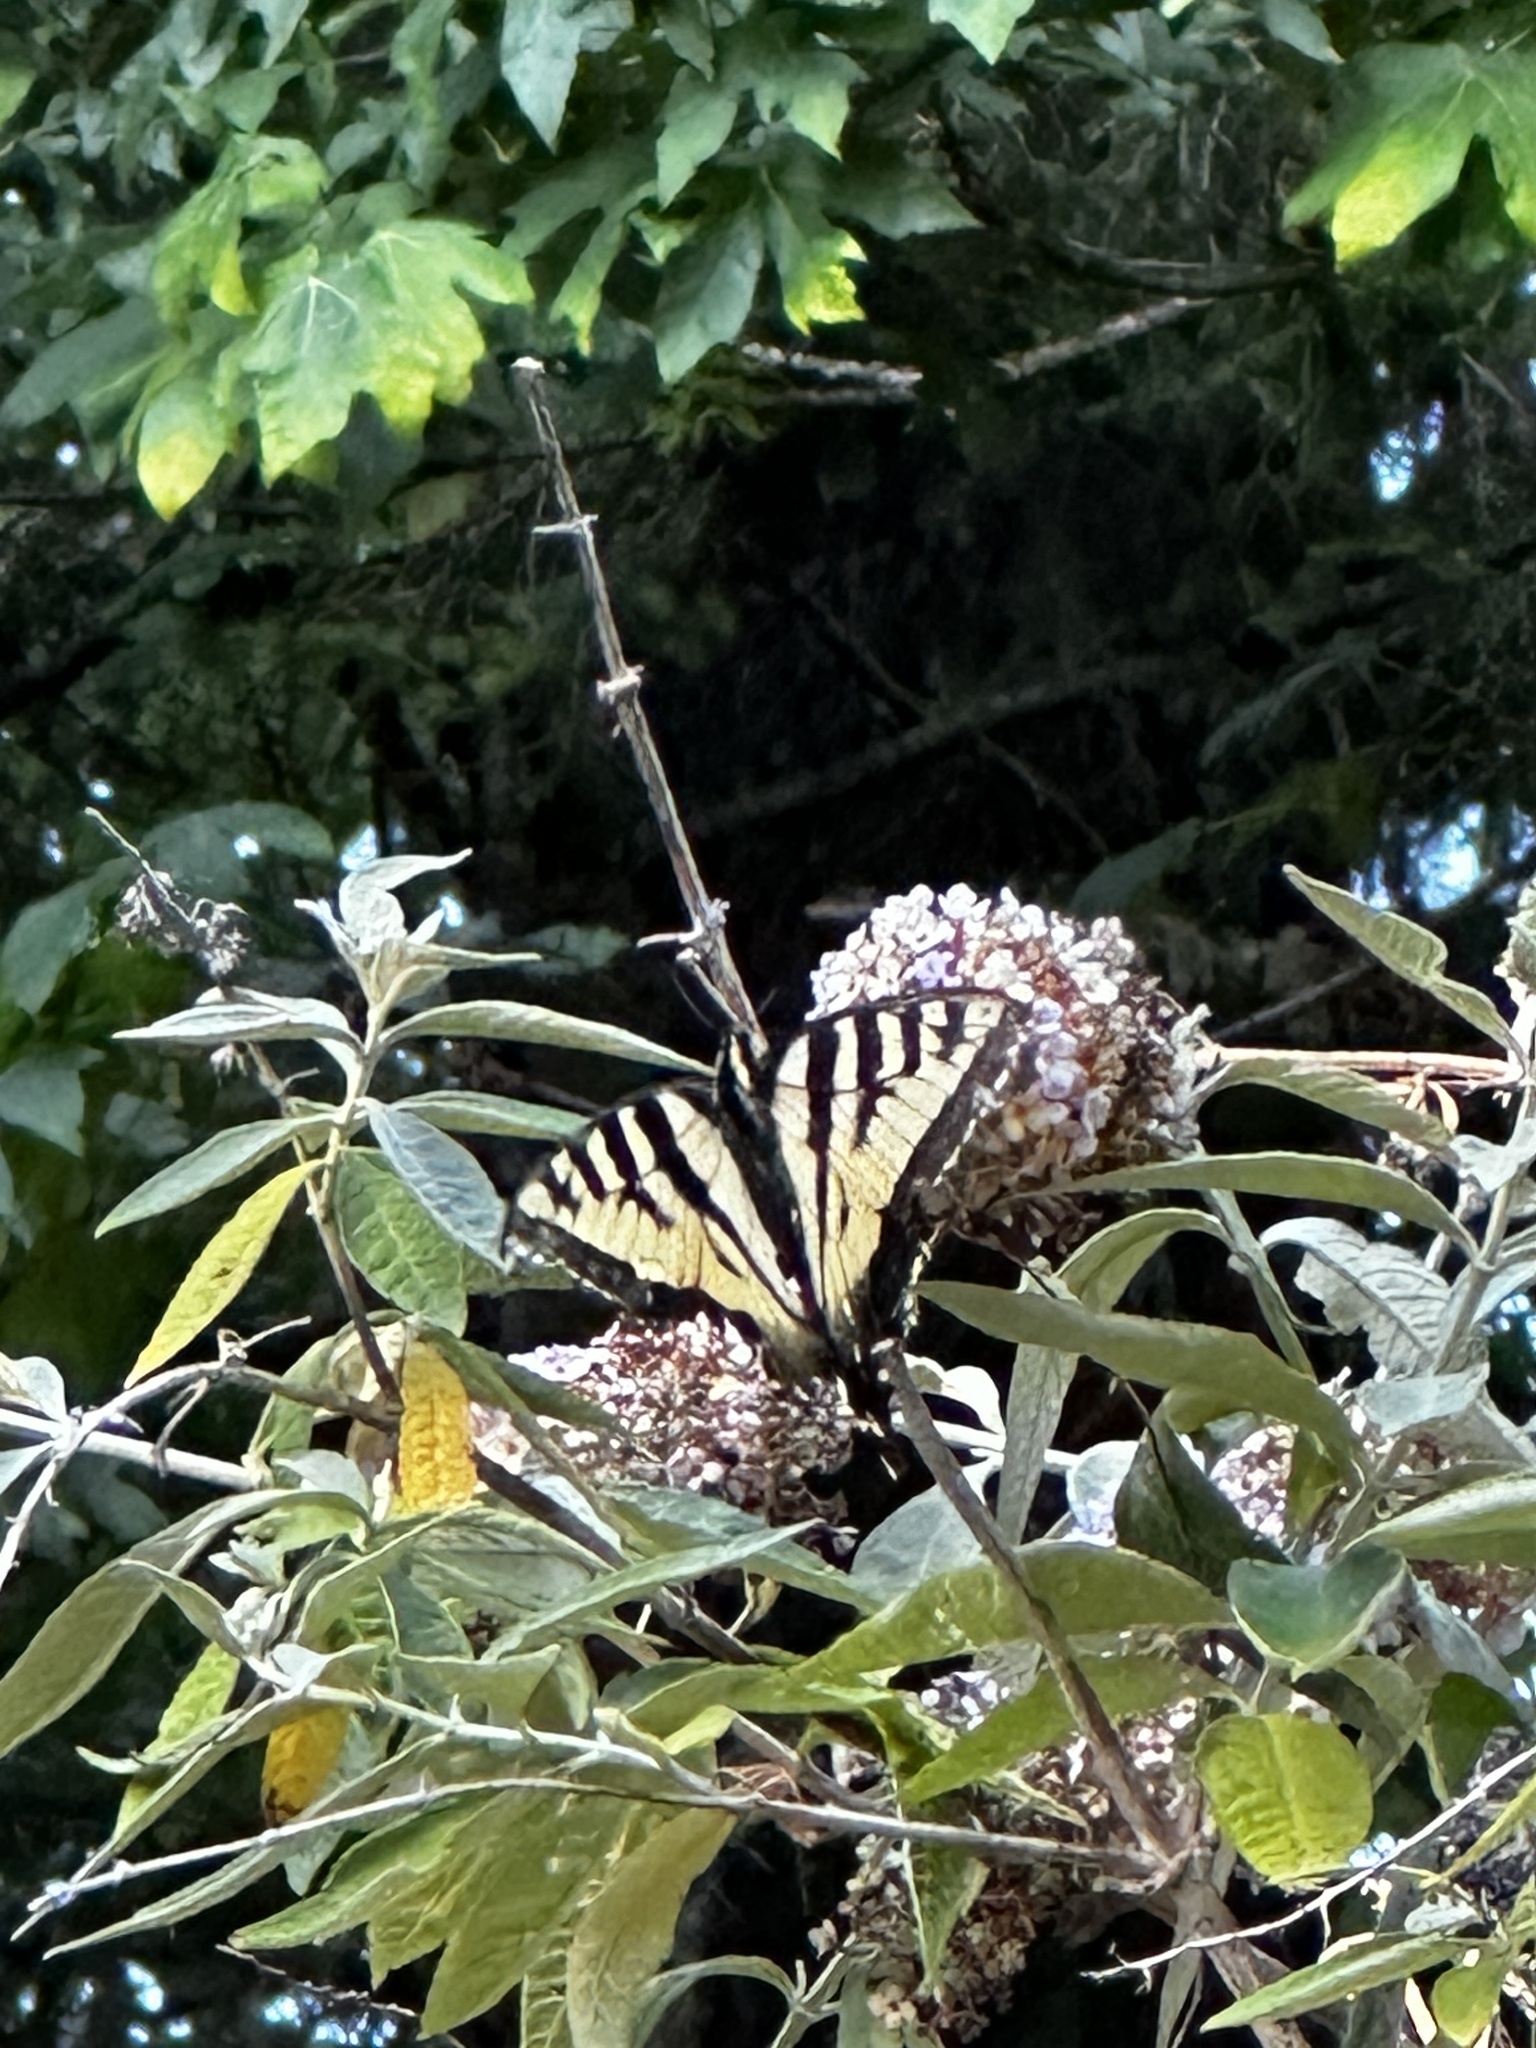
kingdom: Animalia
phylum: Arthropoda
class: Insecta
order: Lepidoptera
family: Papilionidae
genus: Papilio
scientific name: Papilio rutulus
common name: Western tiger swallowtail
